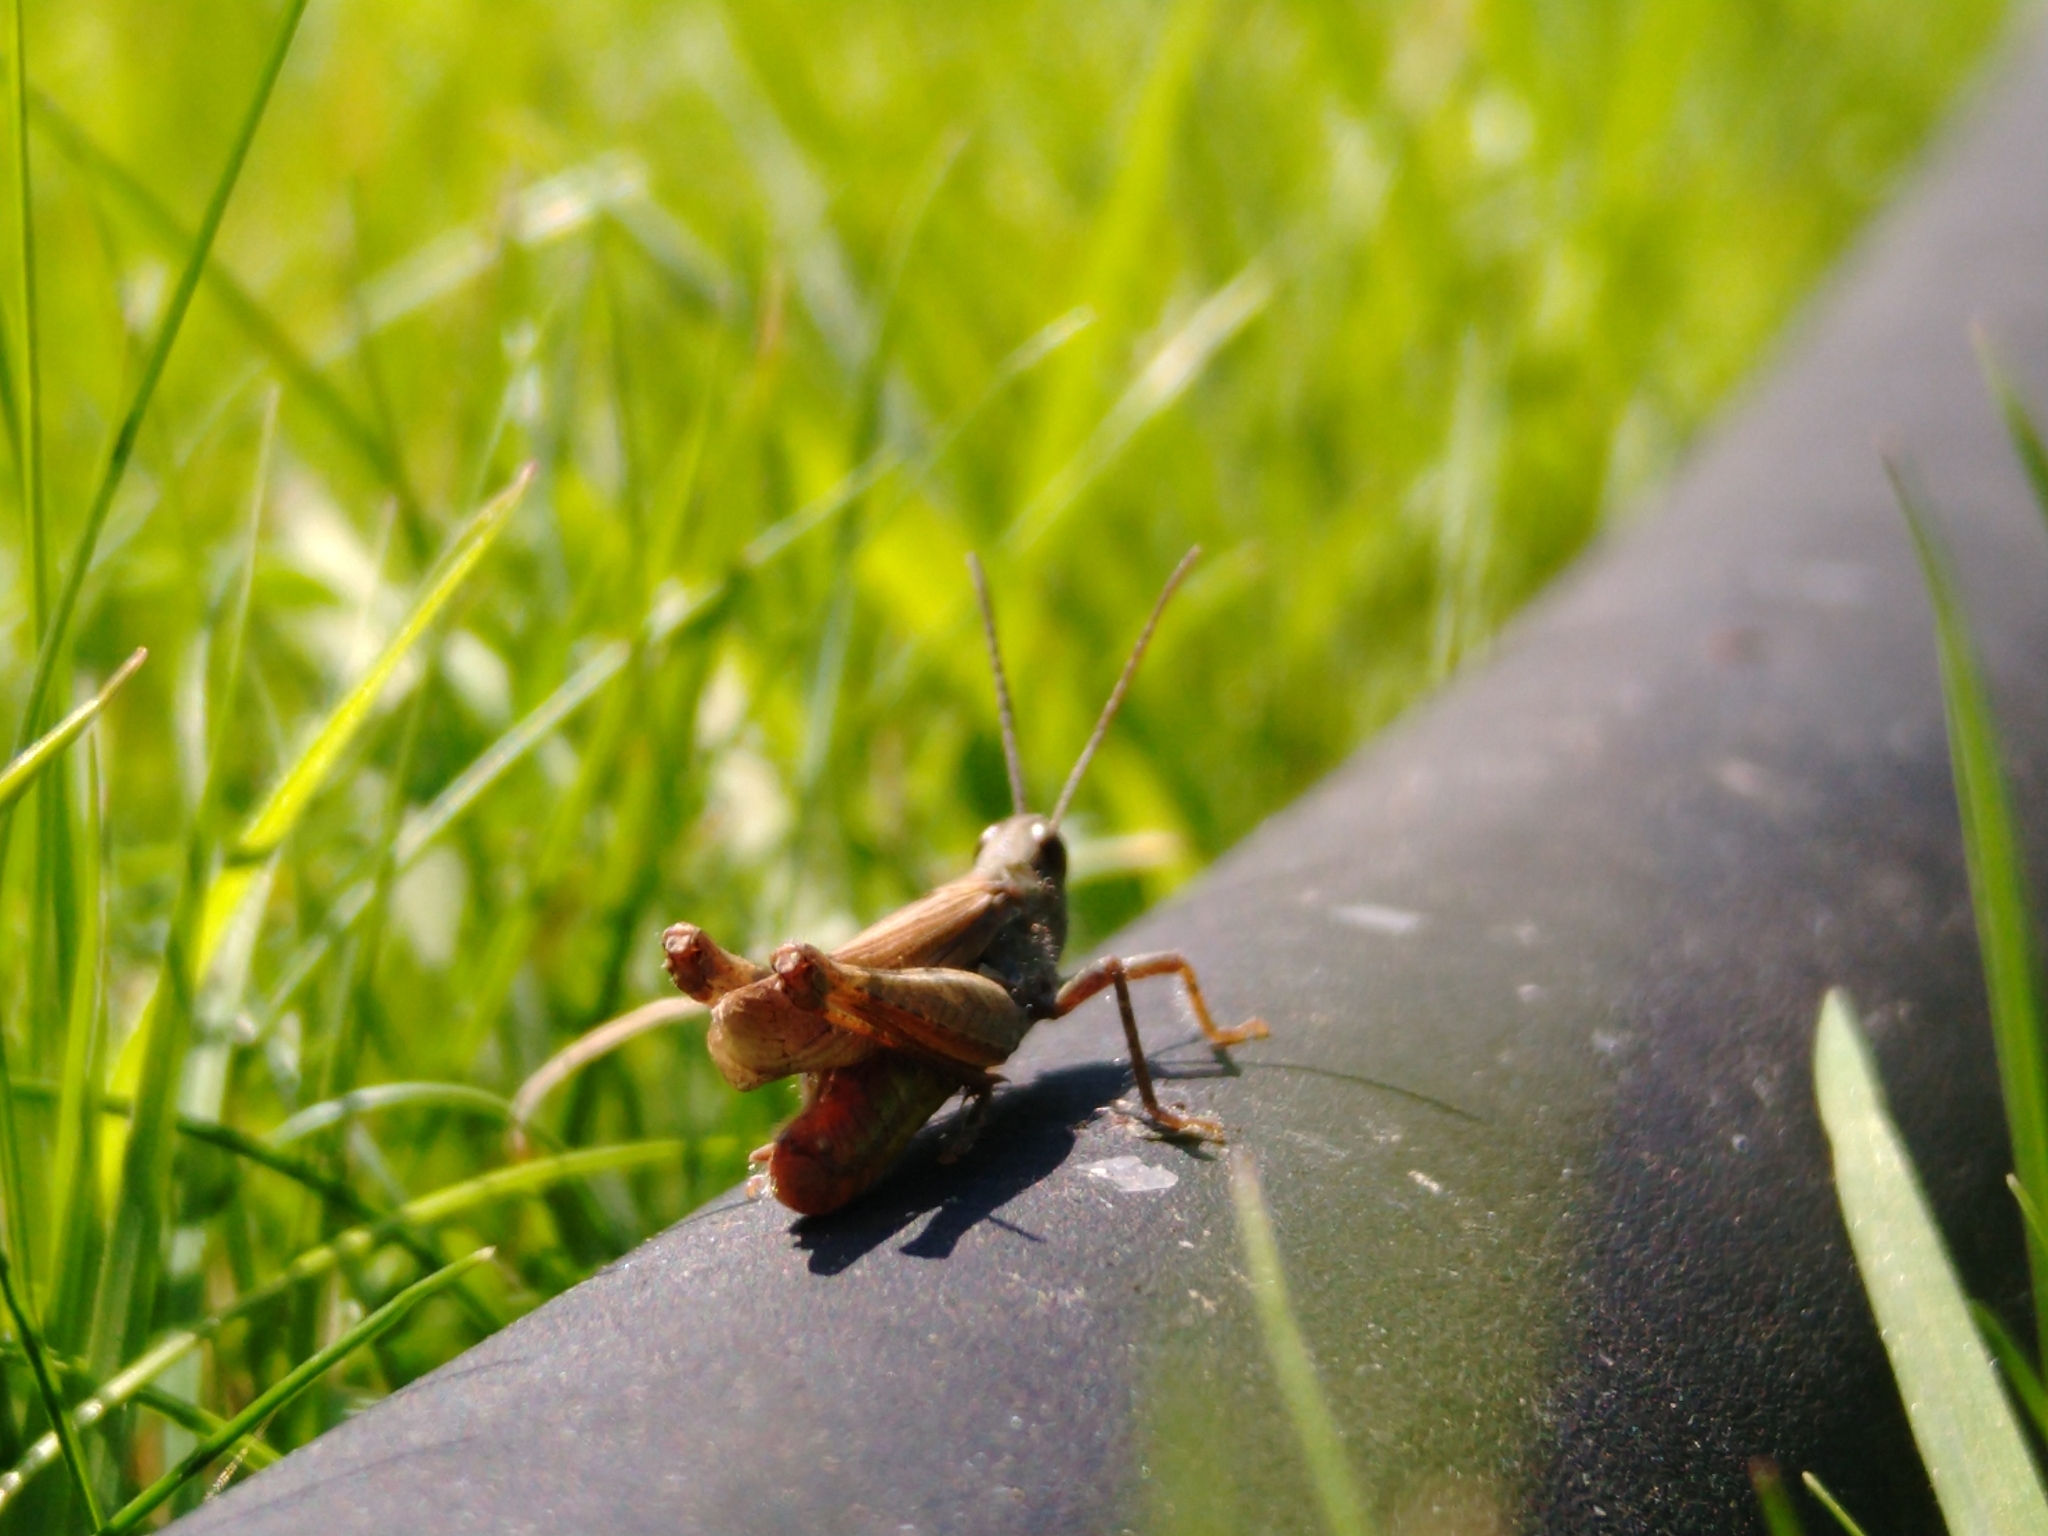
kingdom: Animalia
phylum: Arthropoda
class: Insecta
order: Orthoptera
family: Acrididae
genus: Chorthippus
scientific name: Chorthippus brunneus
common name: Field grasshopper
